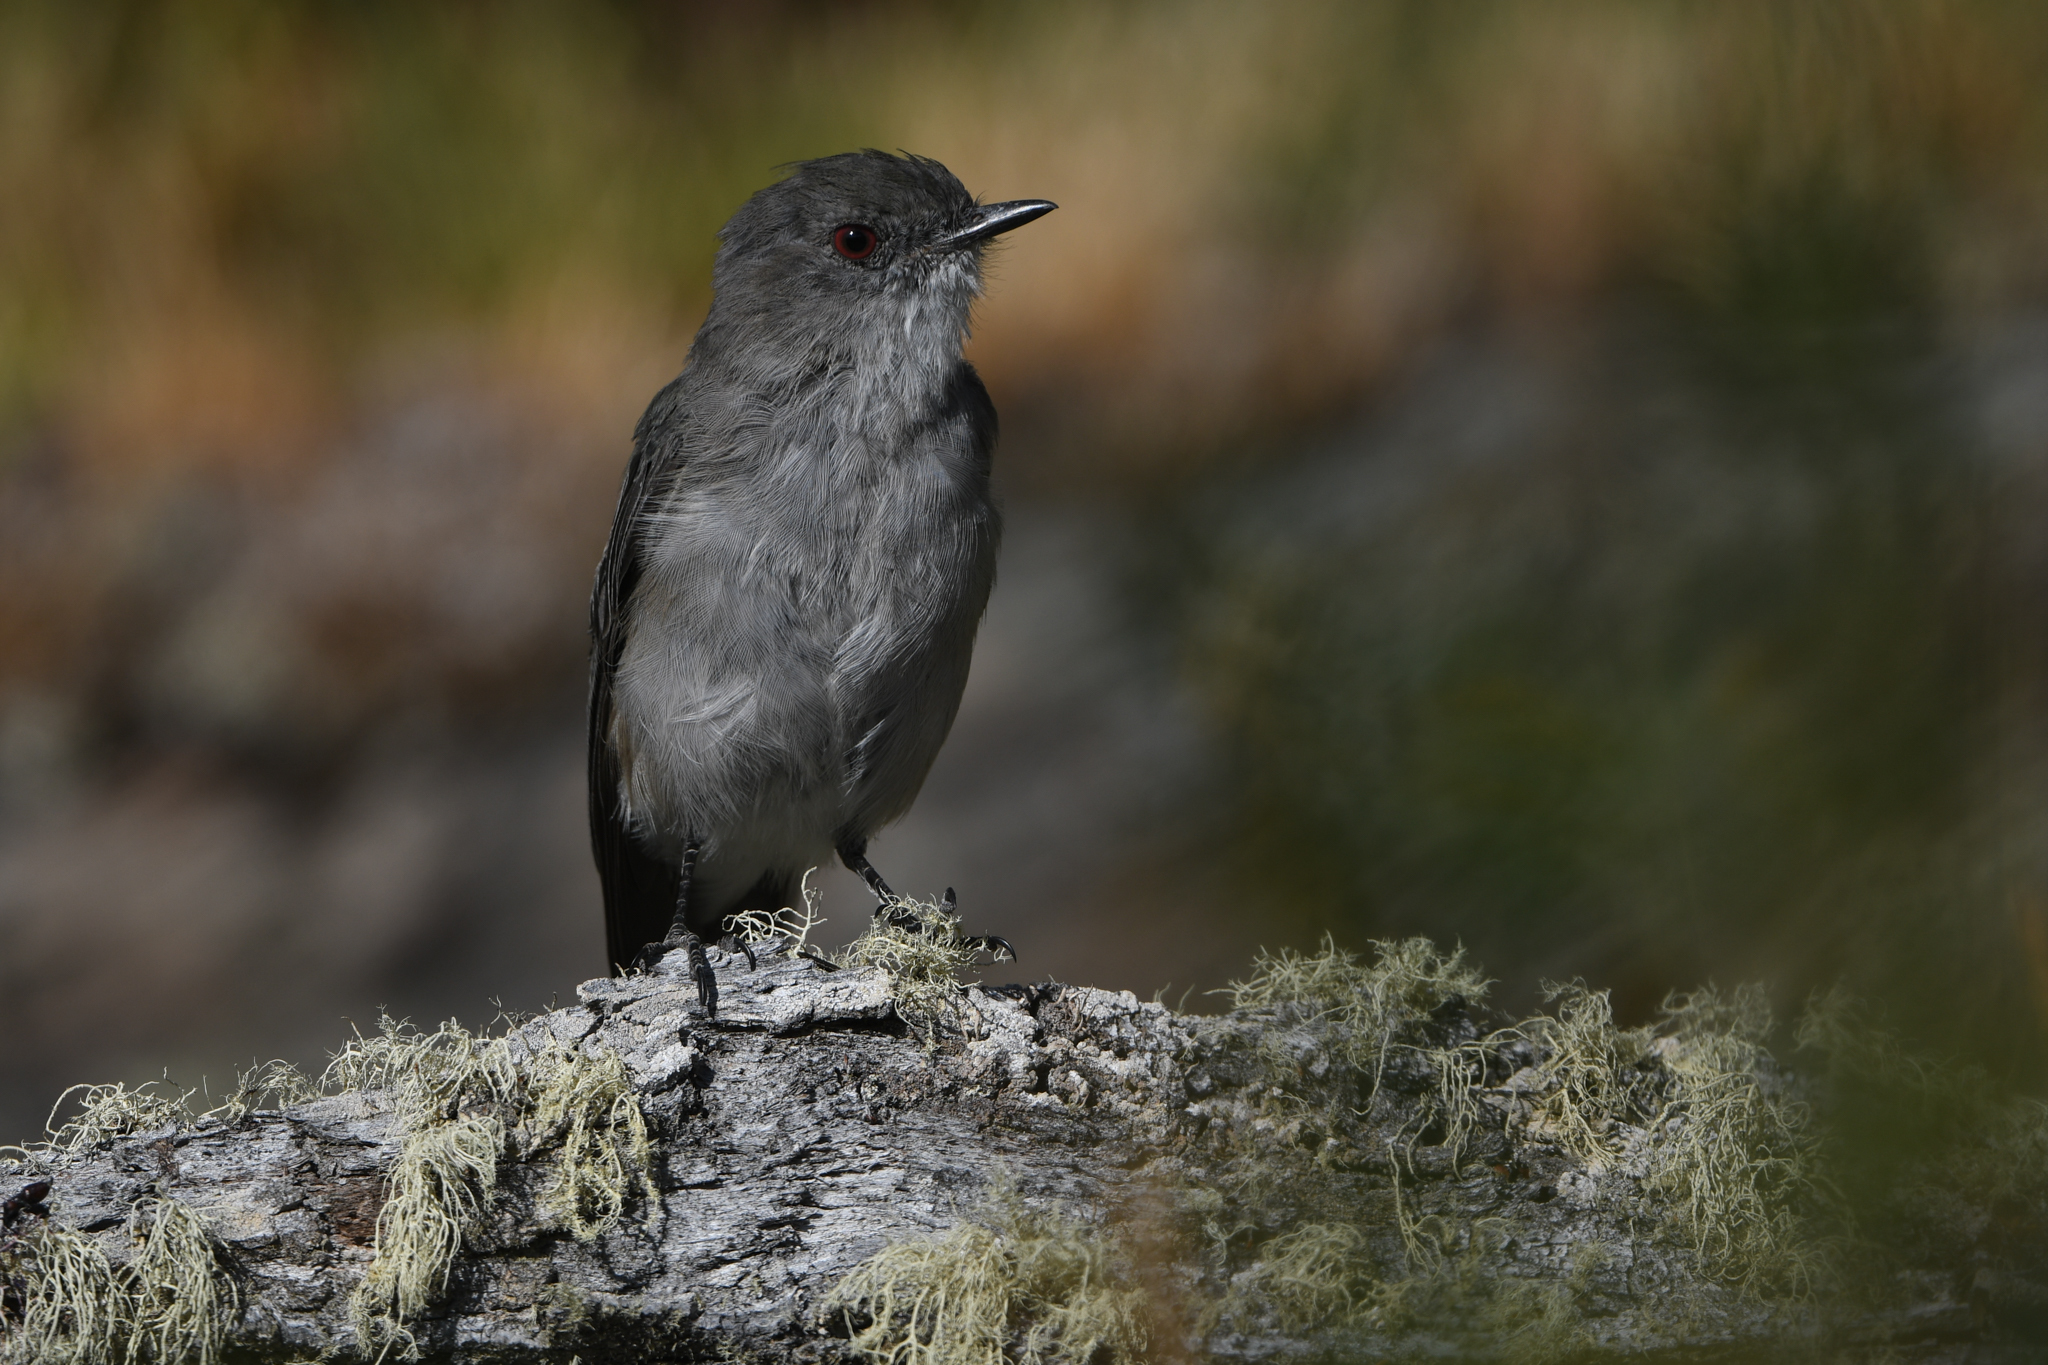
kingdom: Animalia
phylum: Chordata
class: Aves
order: Passeriformes
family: Tyrannidae
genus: Xolmis
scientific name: Xolmis pyrope
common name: Fire-eyed diucon
